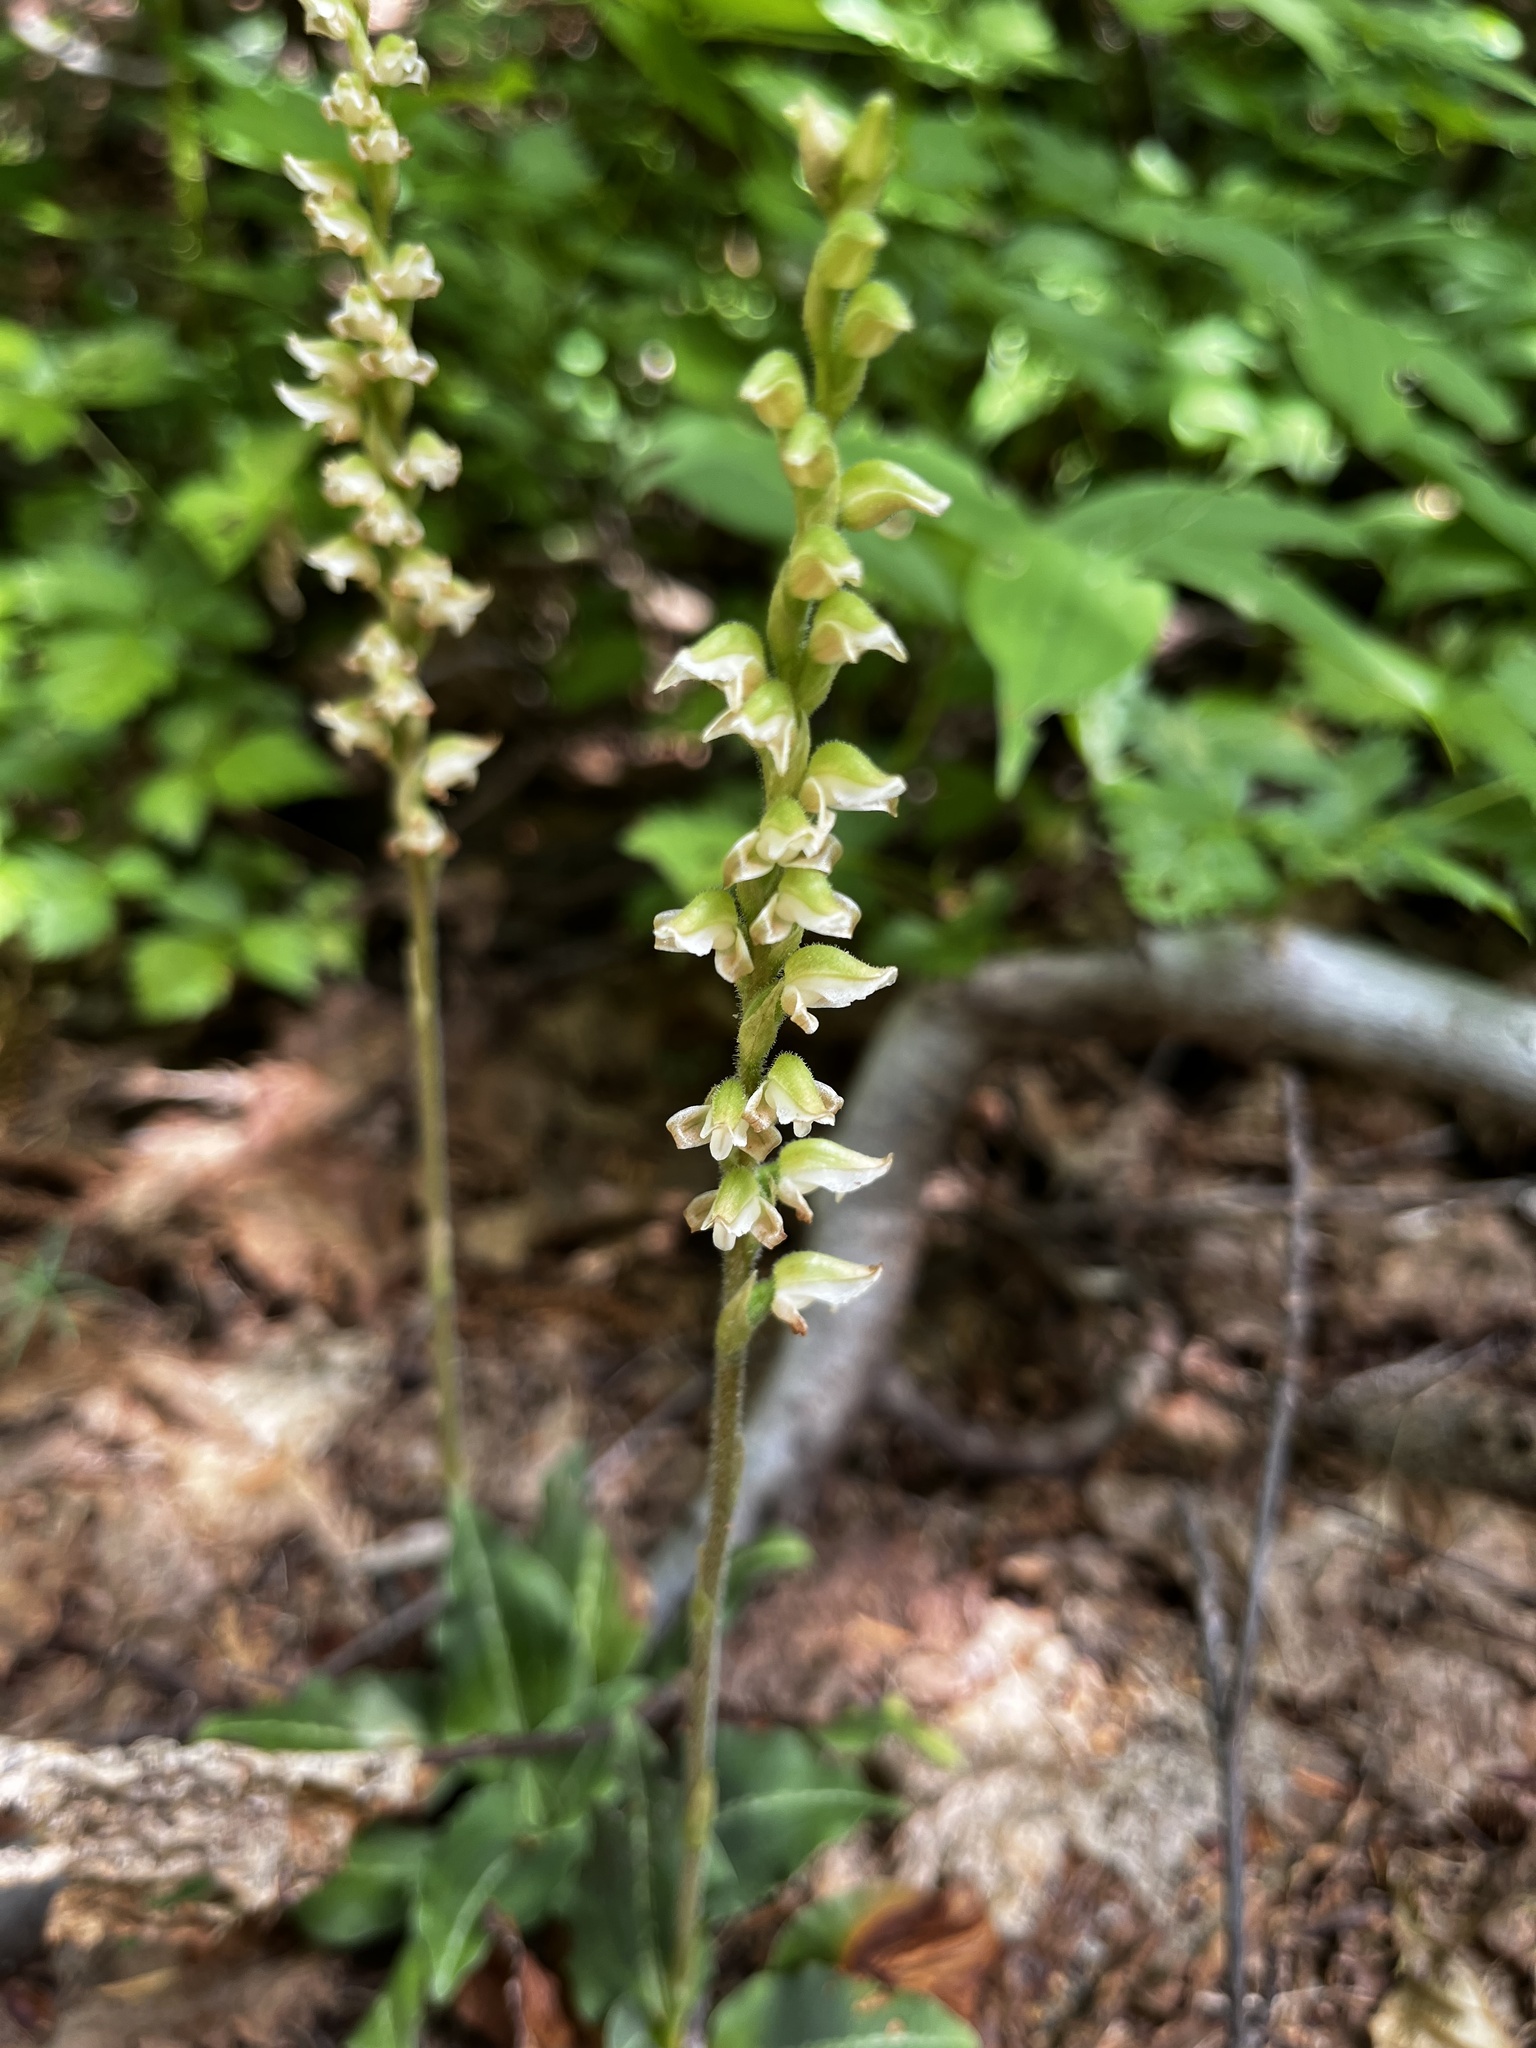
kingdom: Plantae
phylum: Tracheophyta
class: Liliopsida
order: Asparagales
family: Orchidaceae
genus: Goodyera
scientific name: Goodyera oblongifolia
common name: Giant rattlesnake-plantain
